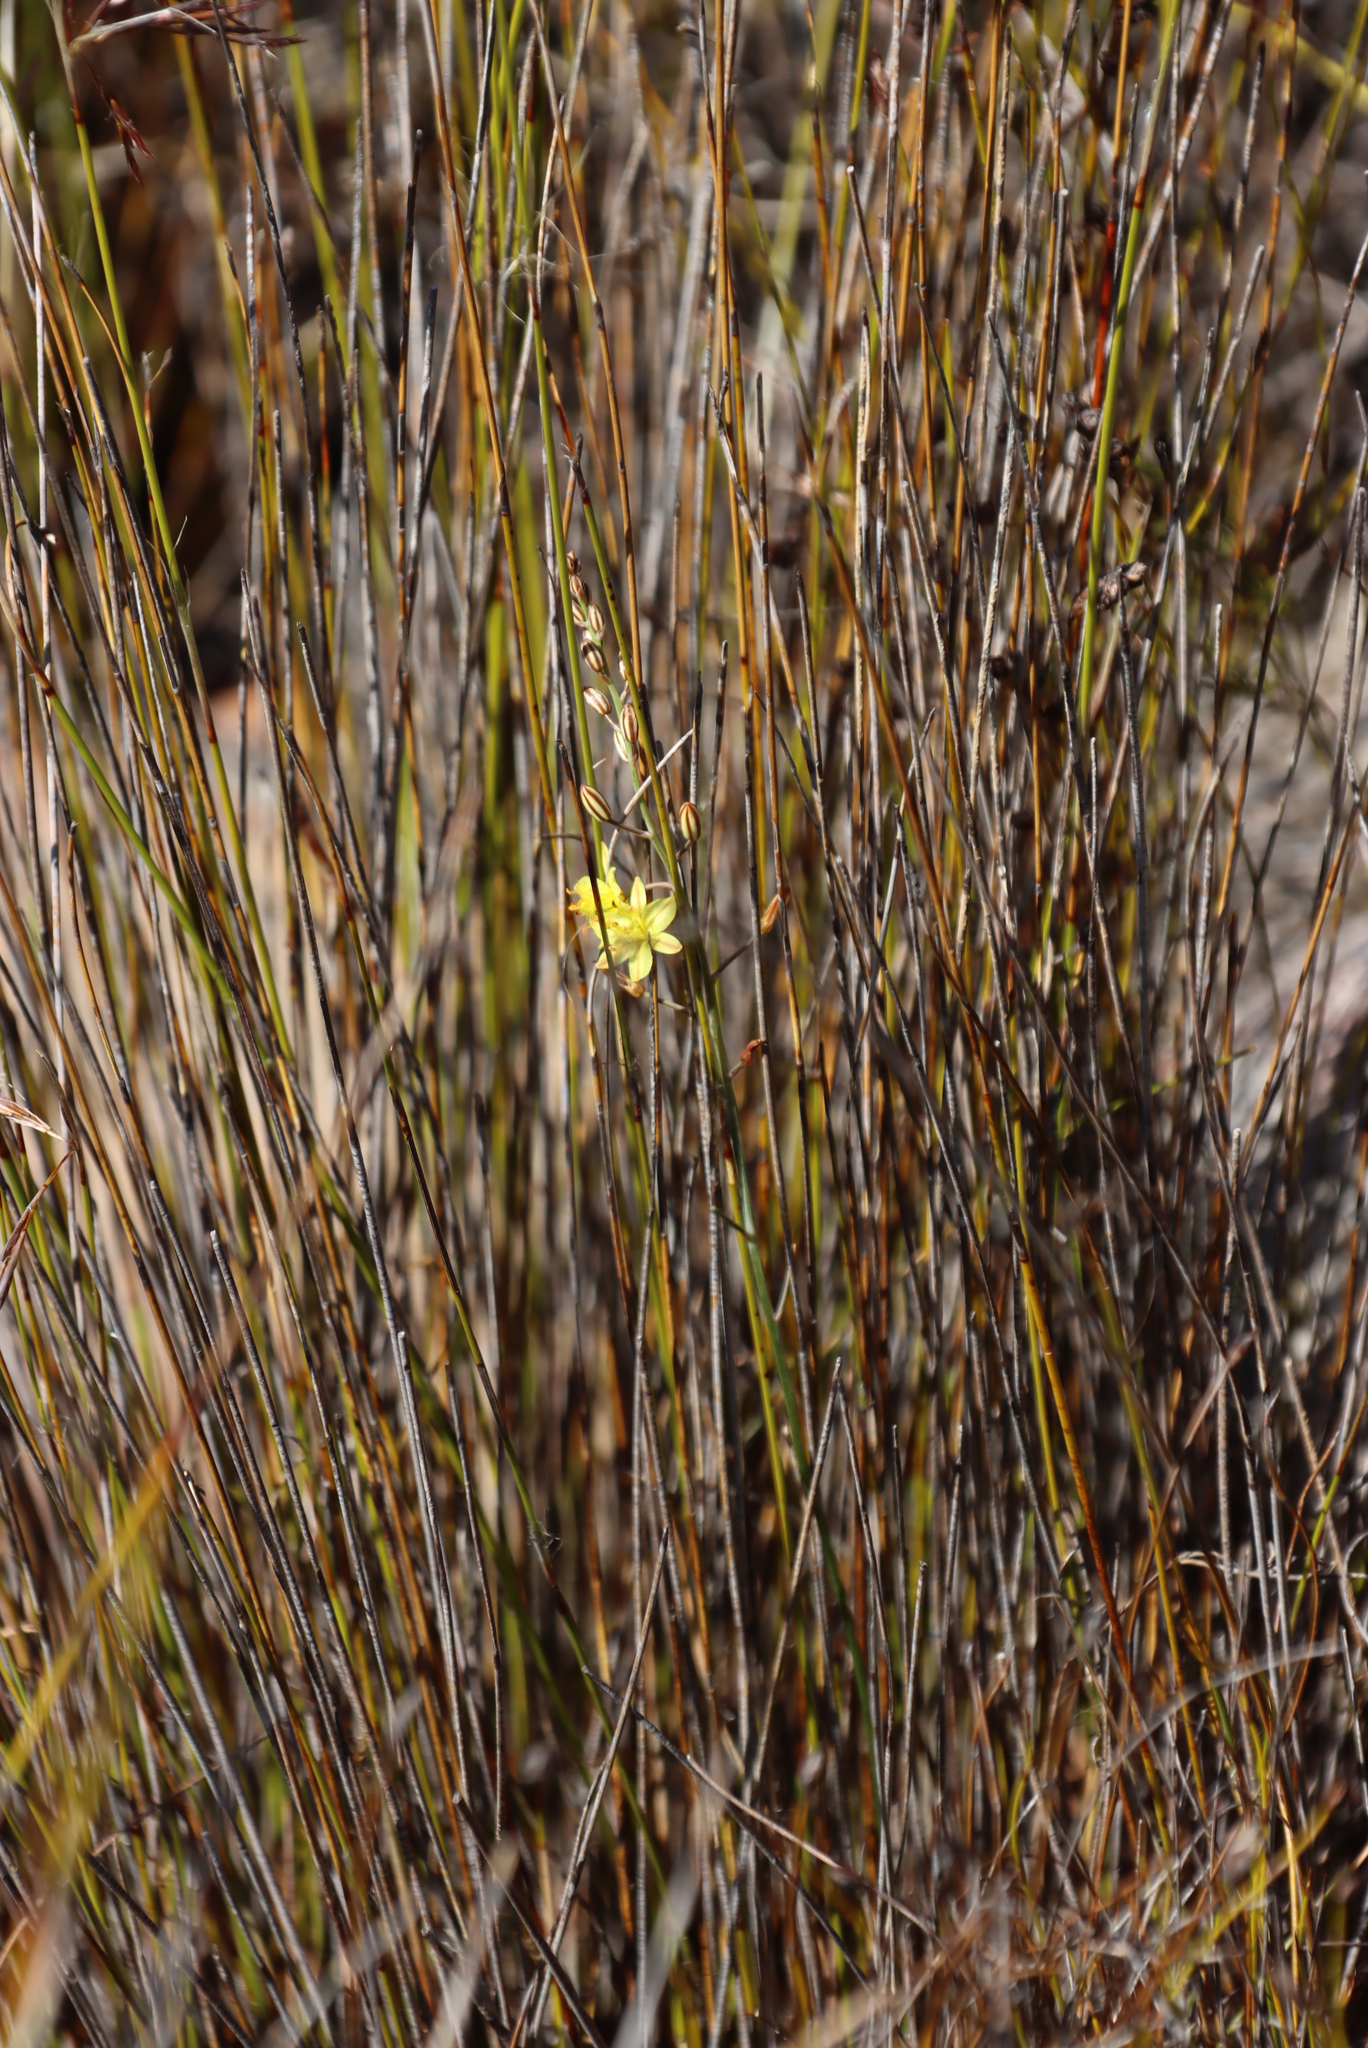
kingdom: Plantae
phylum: Tracheophyta
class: Liliopsida
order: Asparagales
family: Asphodelaceae
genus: Bulbine
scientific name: Bulbine favosa
